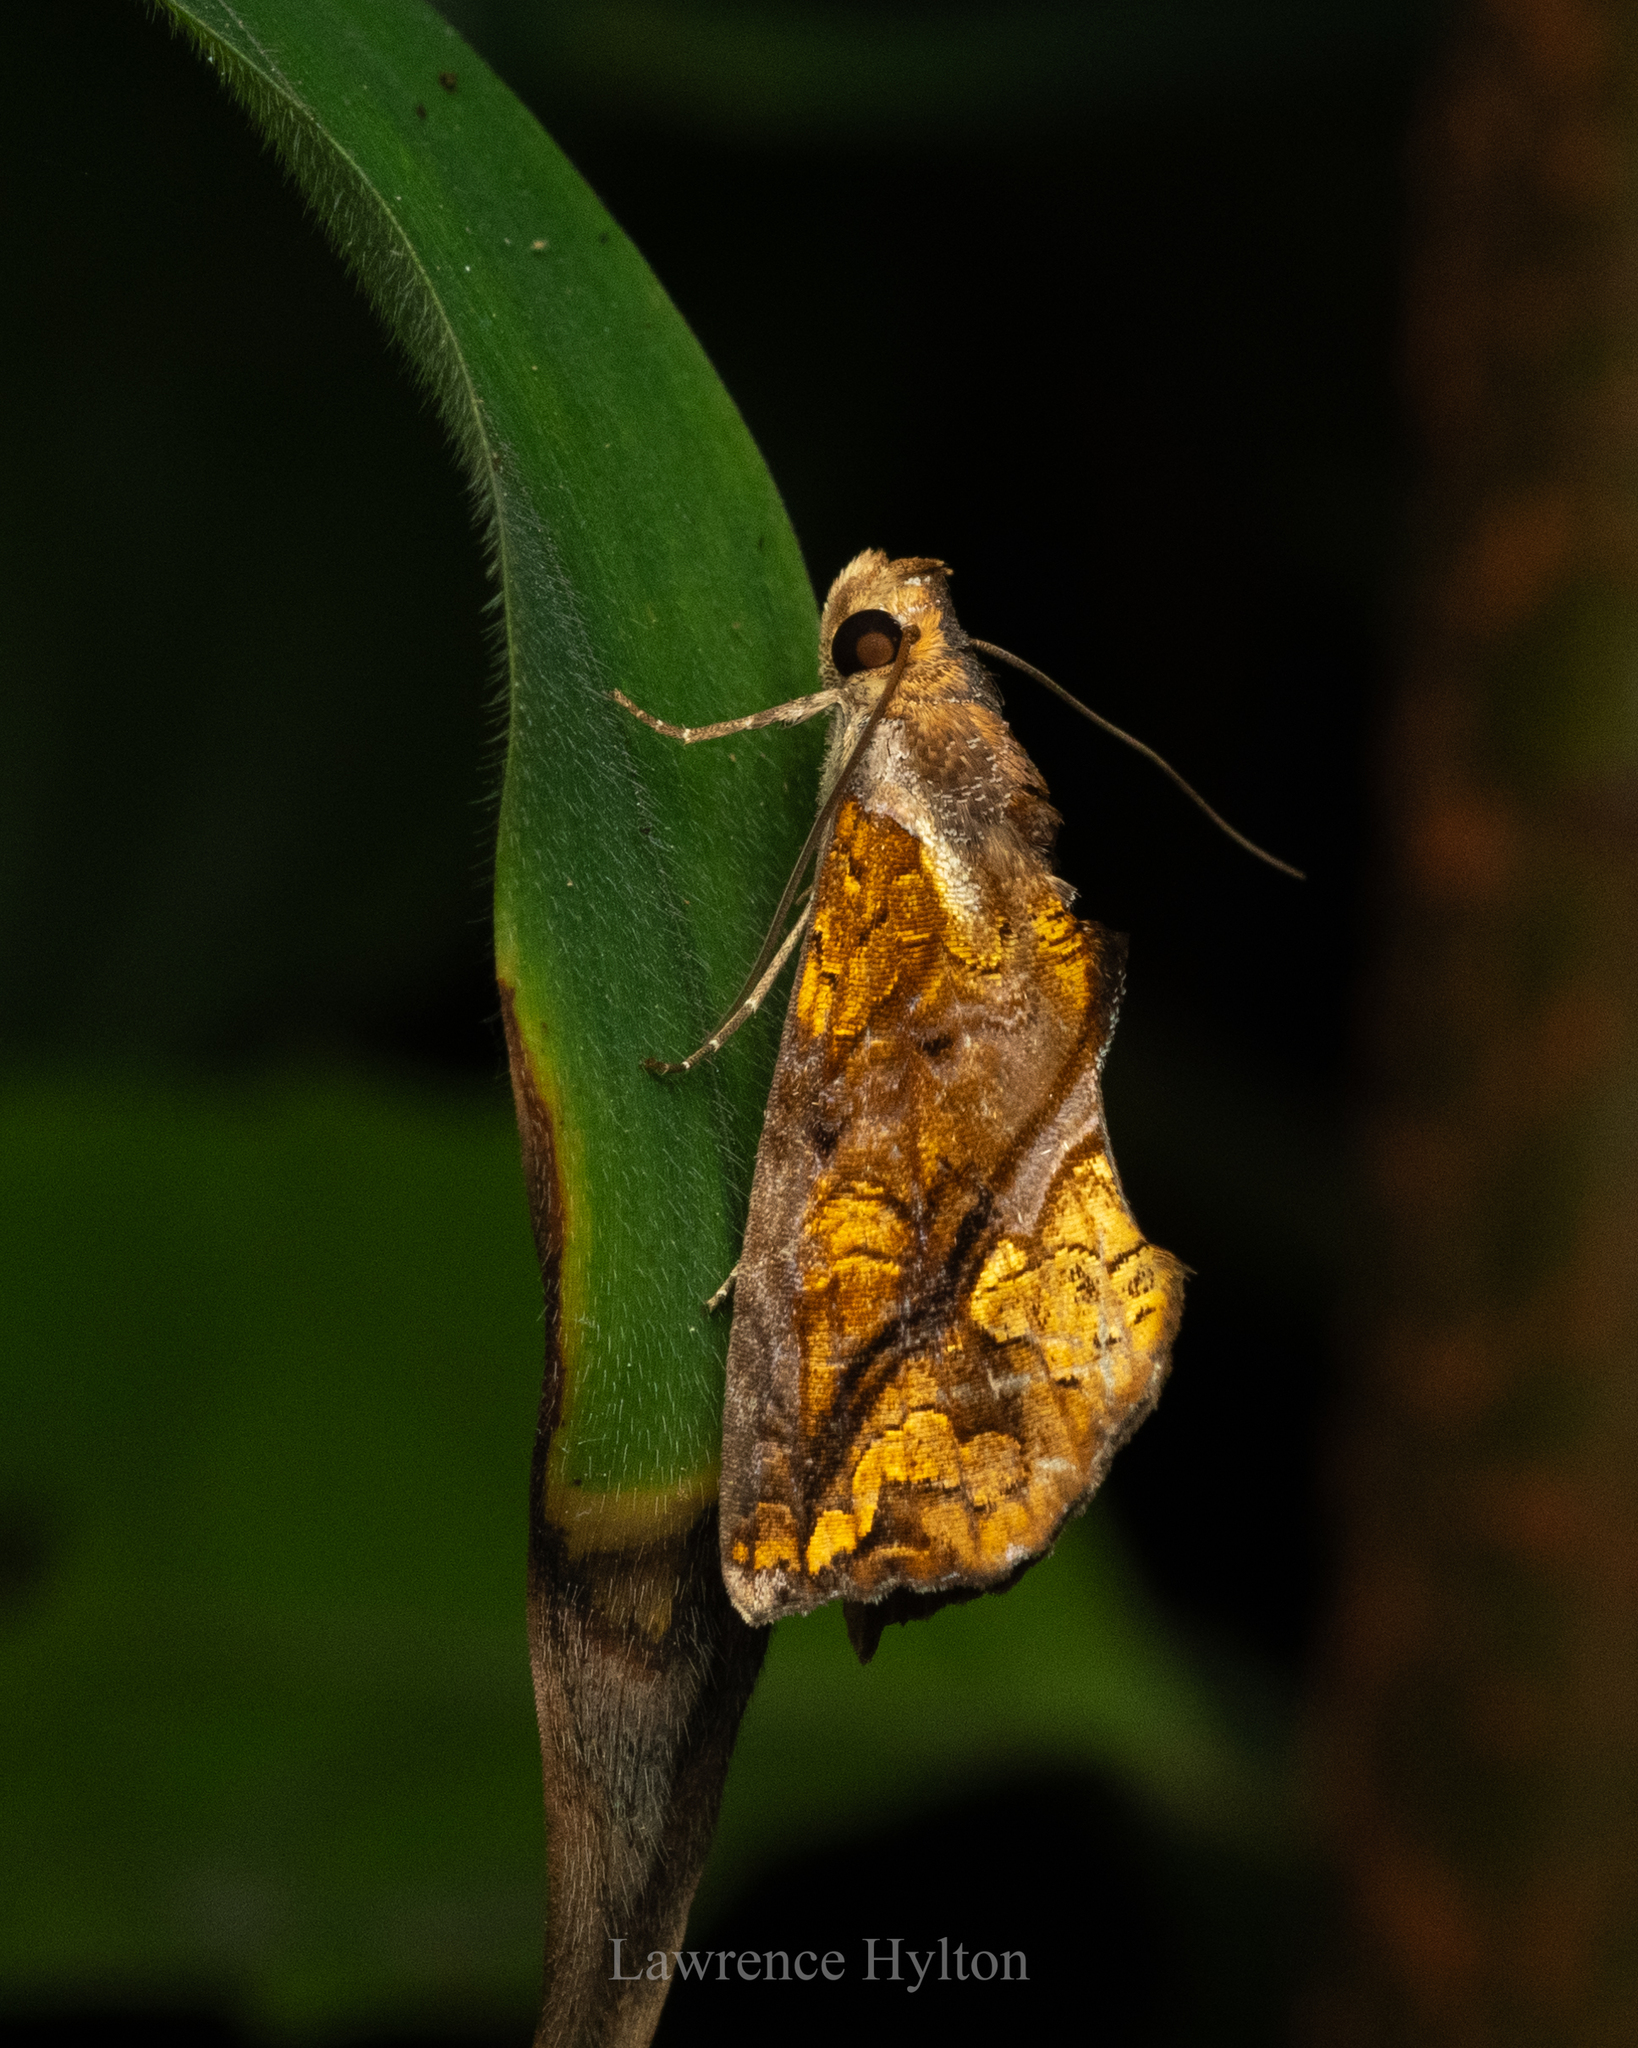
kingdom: Animalia
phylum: Arthropoda
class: Insecta
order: Lepidoptera
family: Erebidae
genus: Plusiodonta
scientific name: Plusiodonta coelonota
